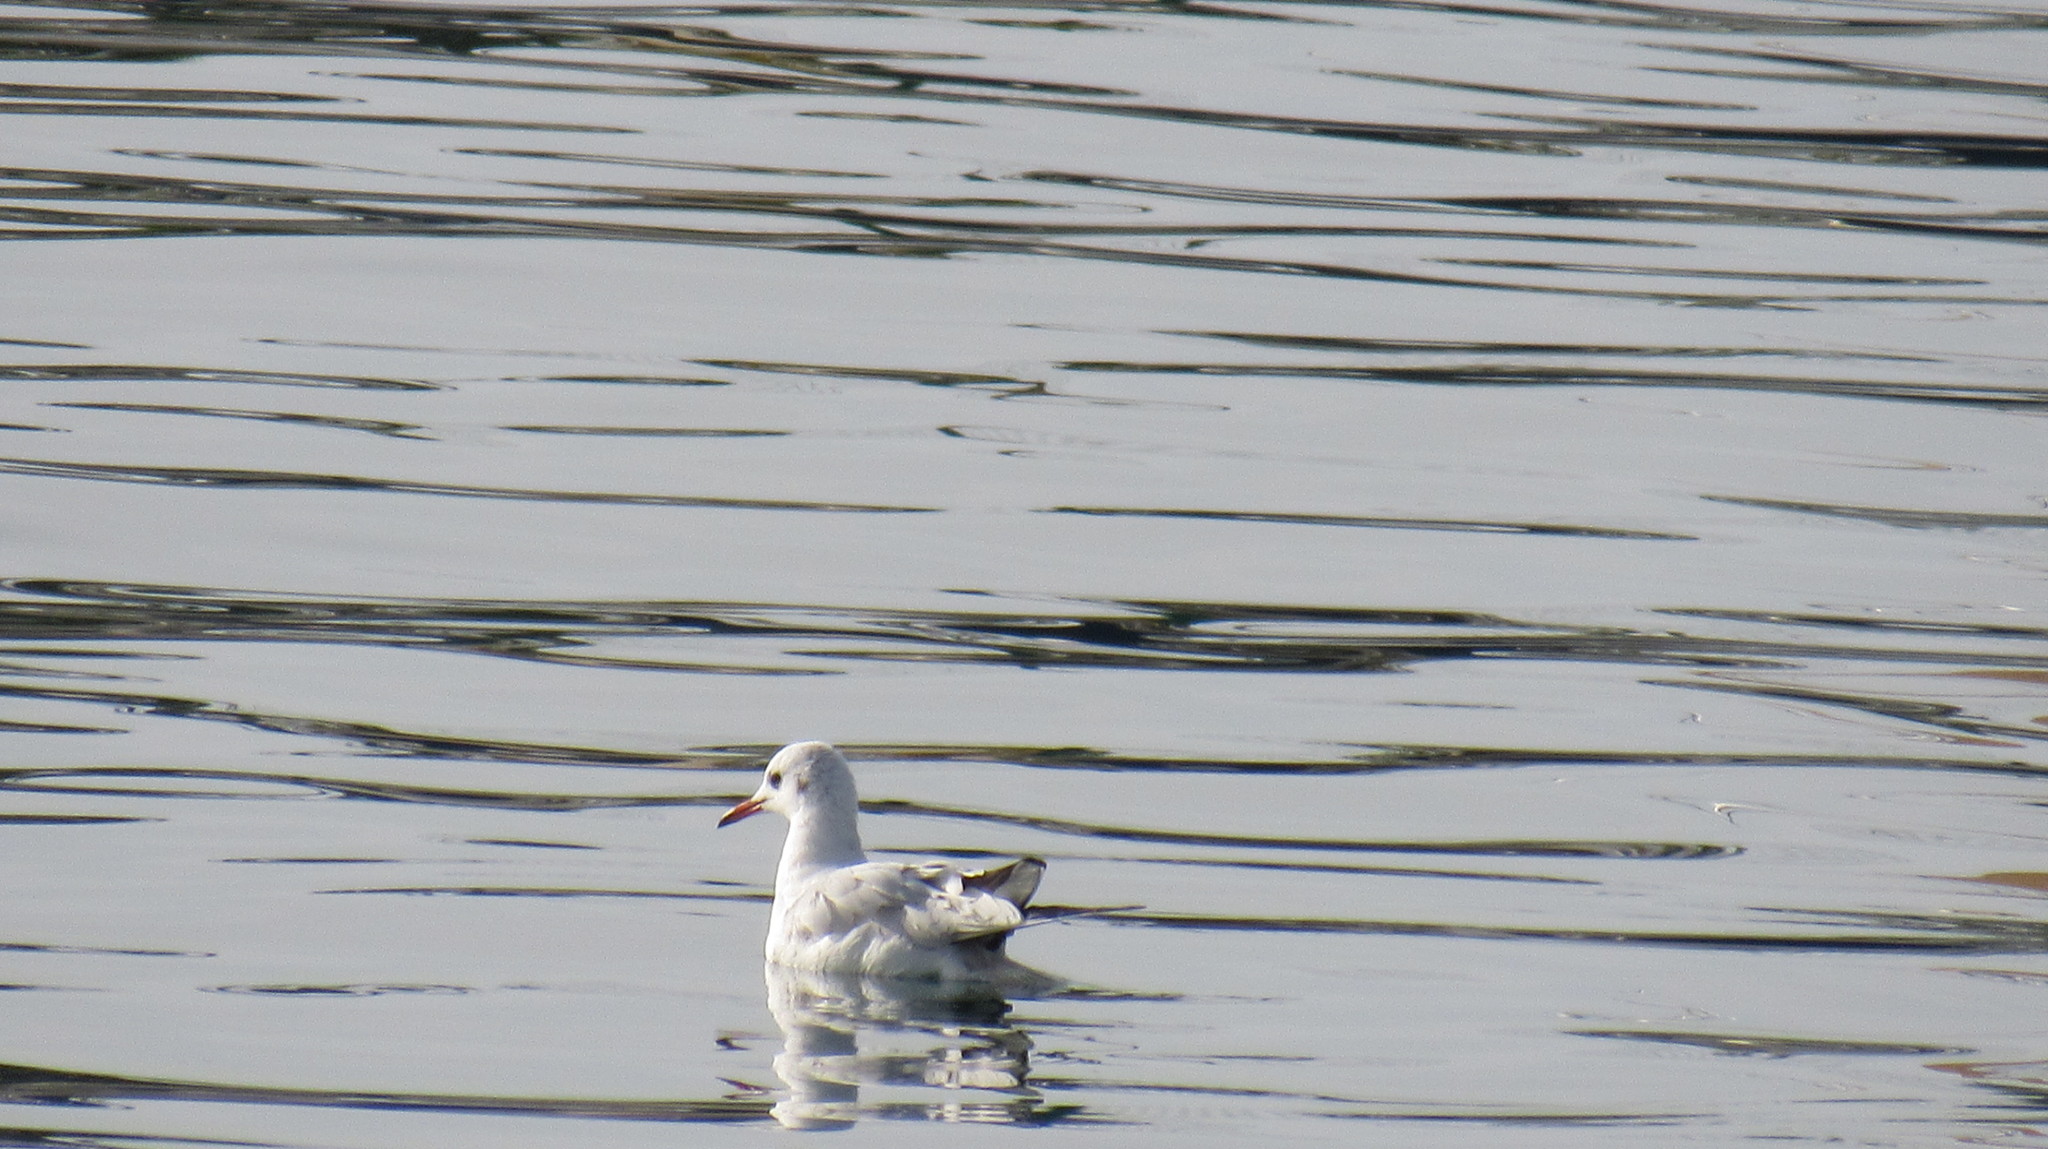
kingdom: Animalia
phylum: Chordata
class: Aves
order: Charadriiformes
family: Laridae
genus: Chroicocephalus
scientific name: Chroicocephalus ridibundus
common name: Black-headed gull
